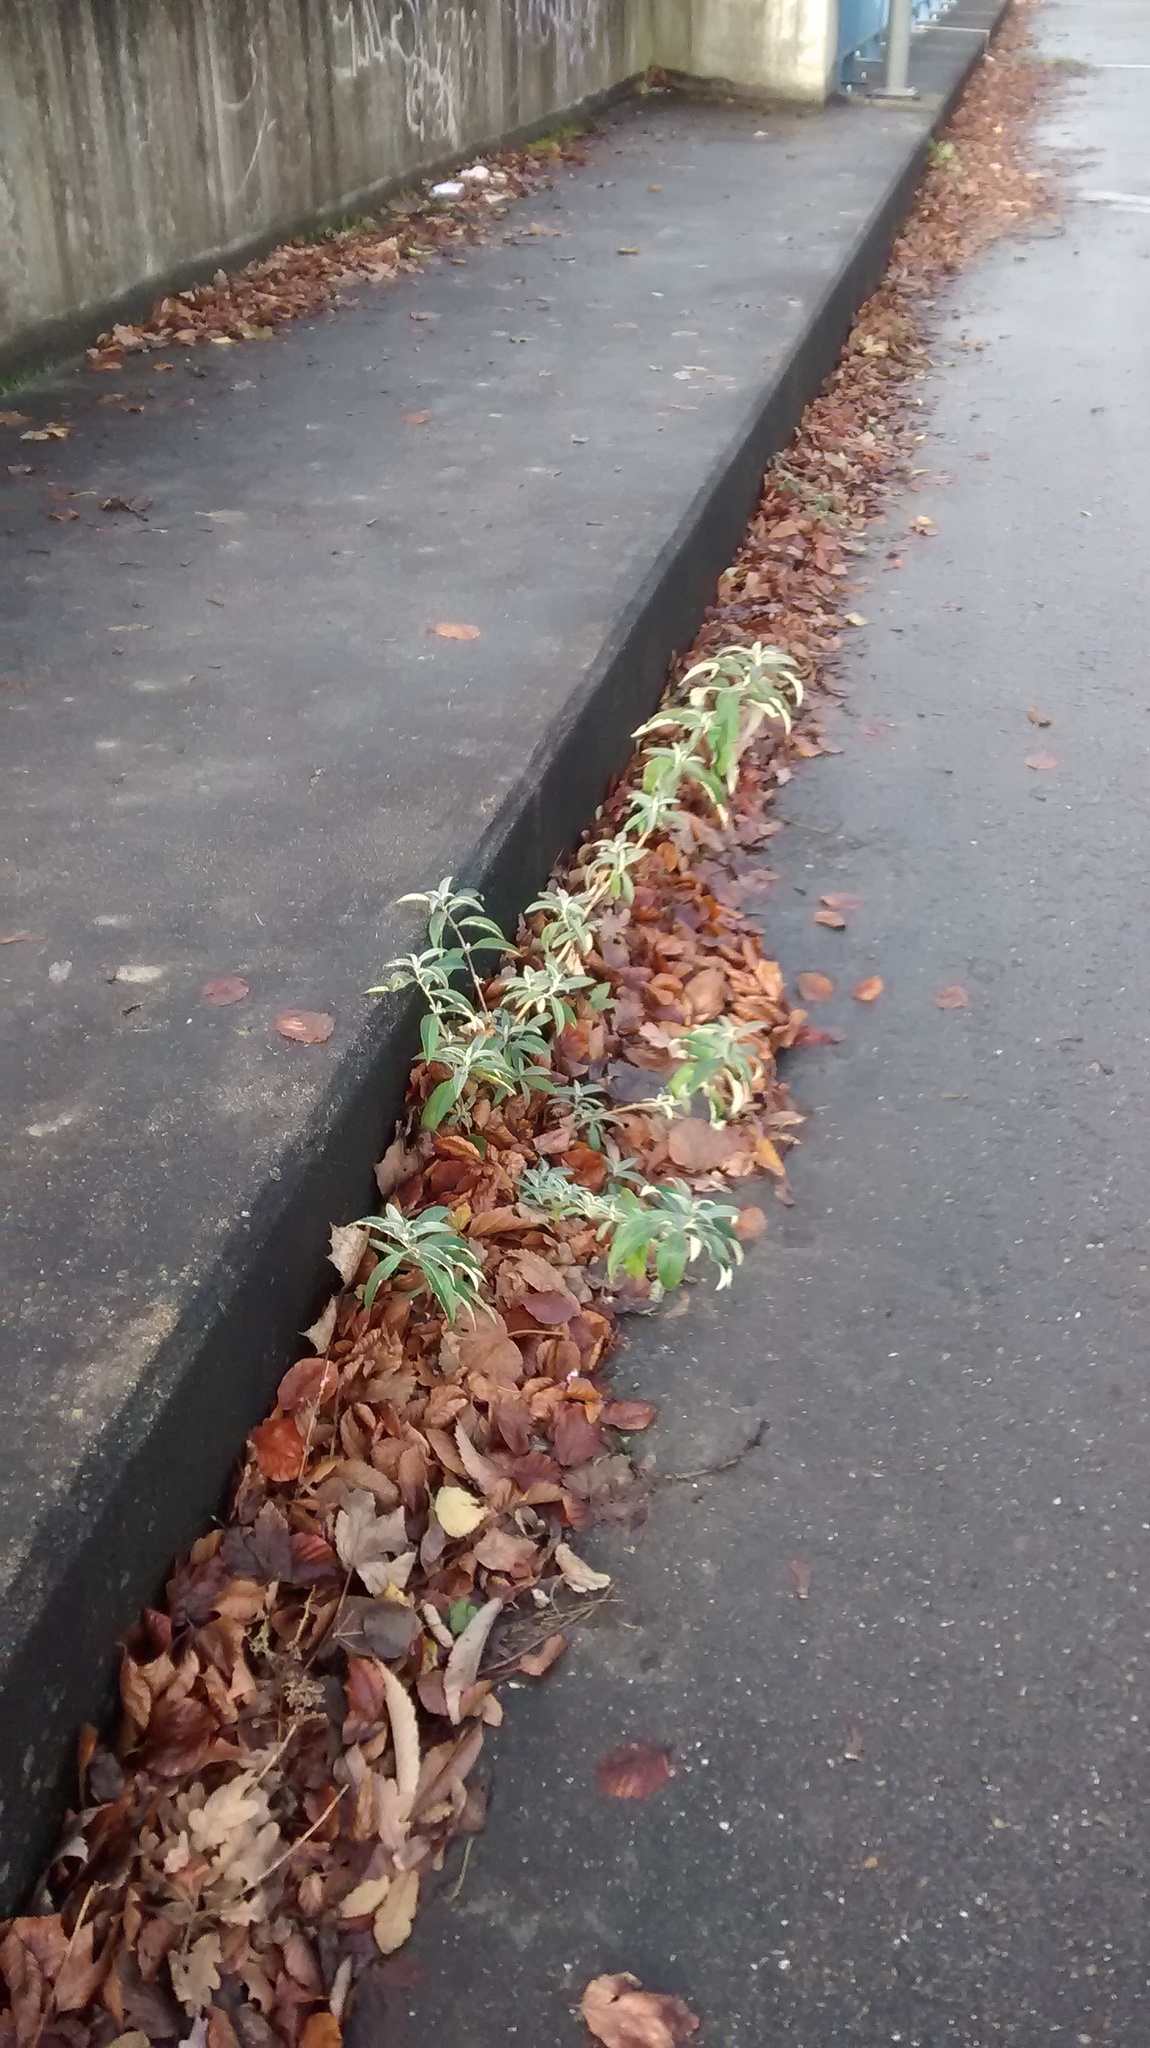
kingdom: Plantae
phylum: Tracheophyta
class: Magnoliopsida
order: Lamiales
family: Scrophulariaceae
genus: Buddleja
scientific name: Buddleja davidii
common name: Butterfly-bush
